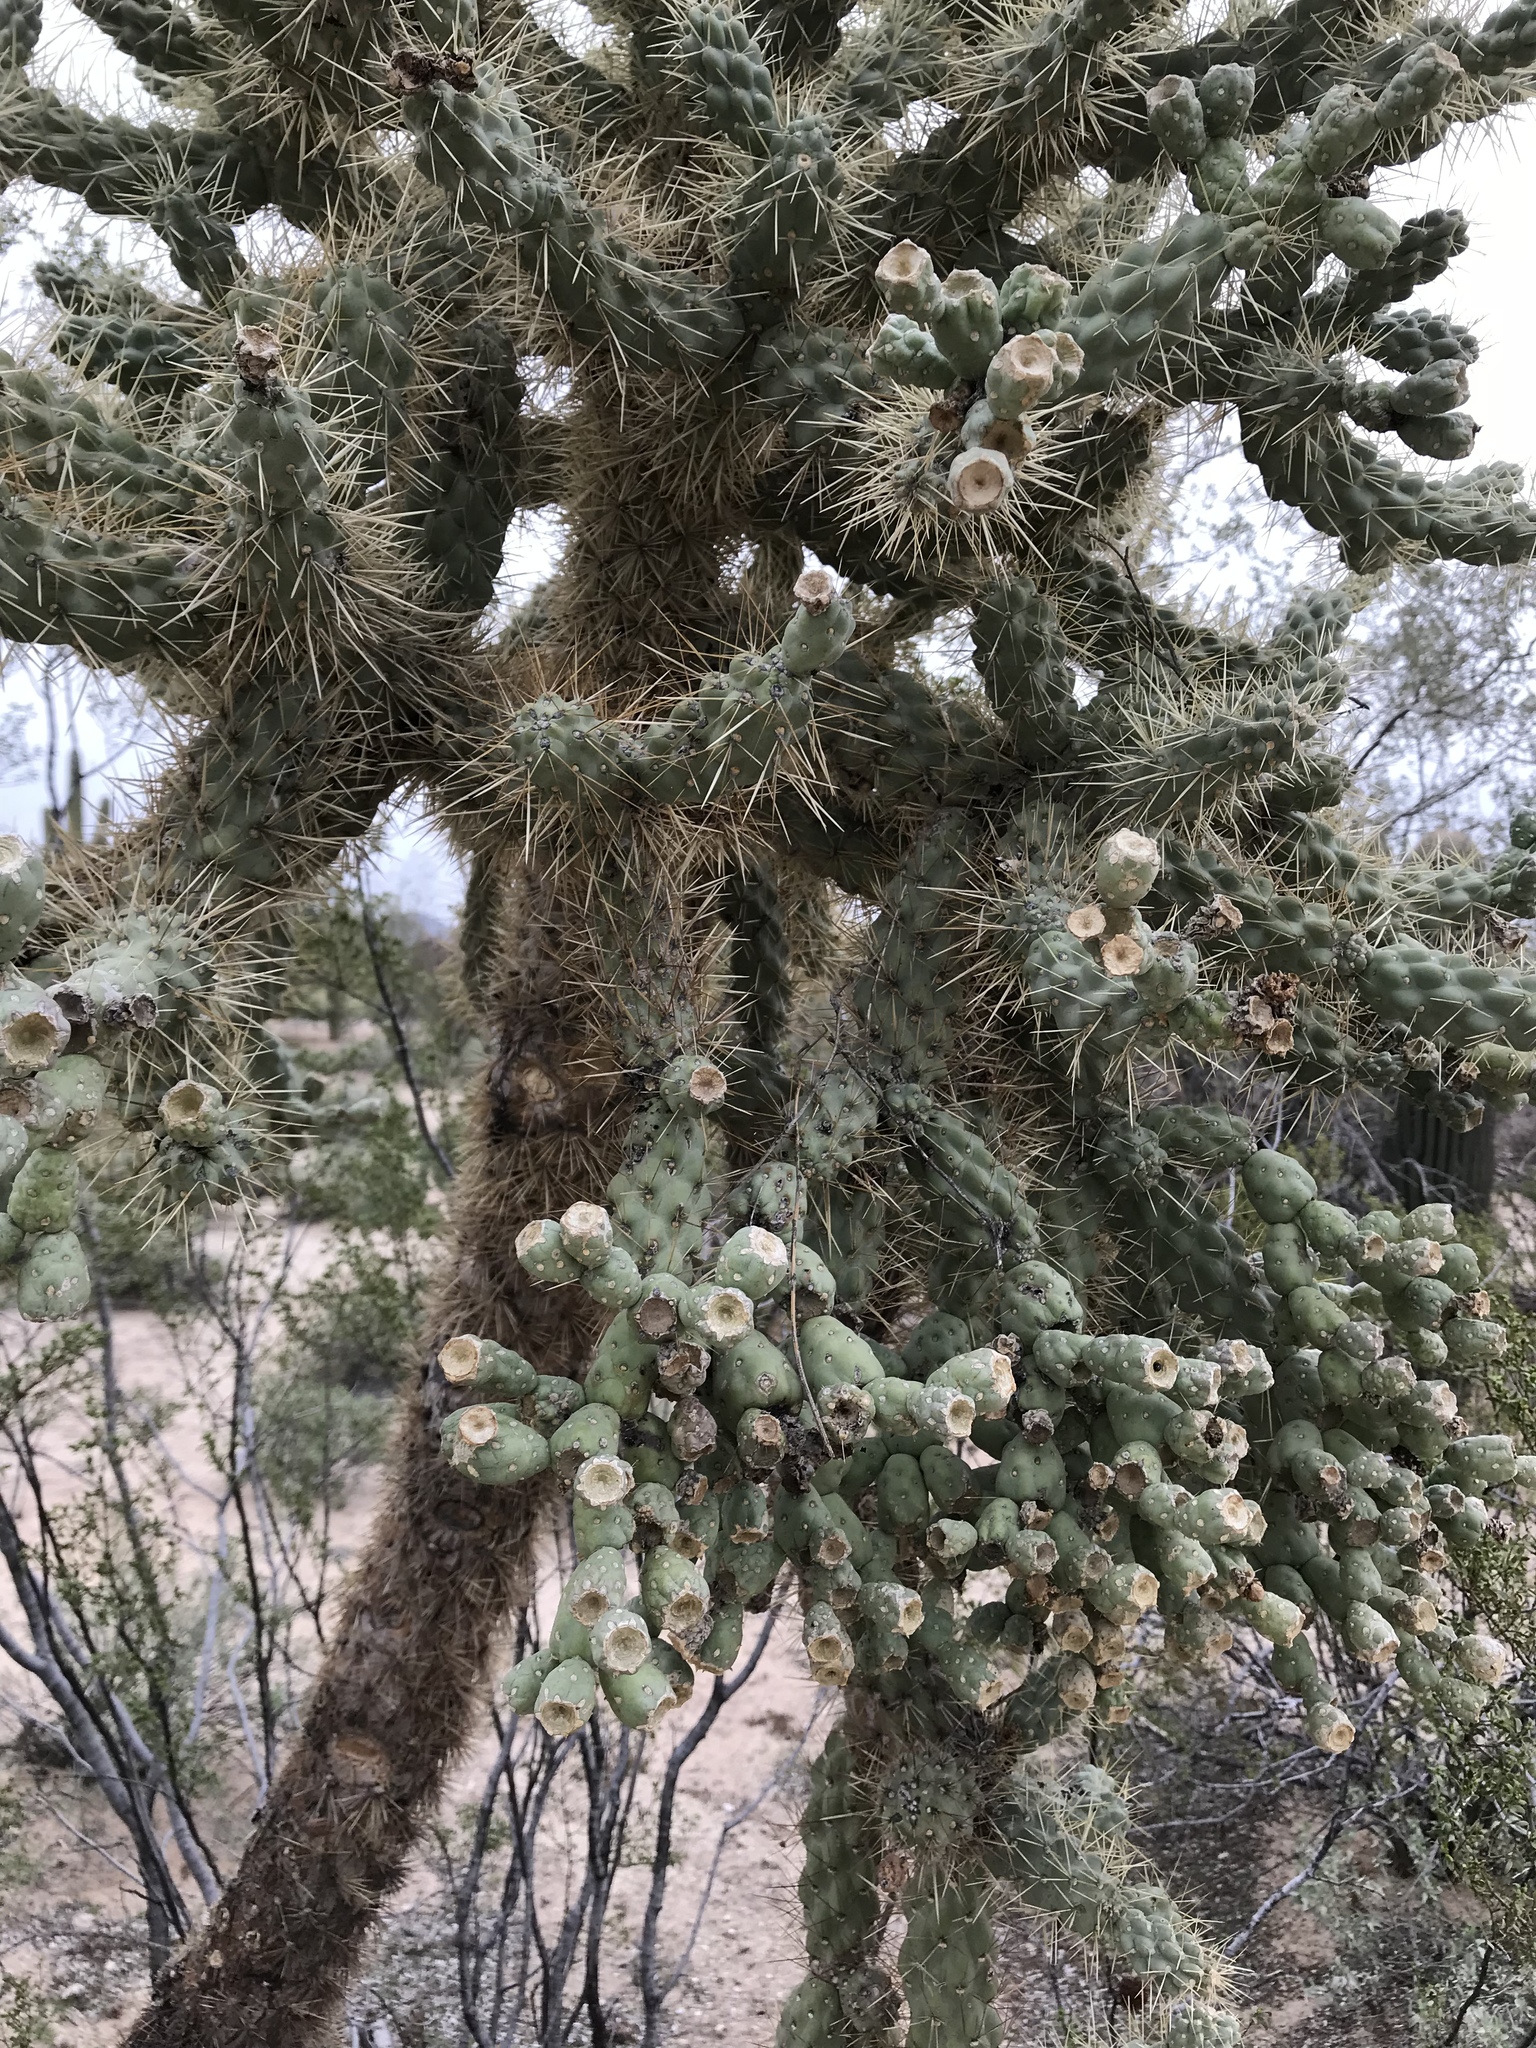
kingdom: Plantae
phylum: Tracheophyta
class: Magnoliopsida
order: Caryophyllales
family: Cactaceae
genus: Cylindropuntia
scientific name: Cylindropuntia fulgida
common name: Jumping cholla
